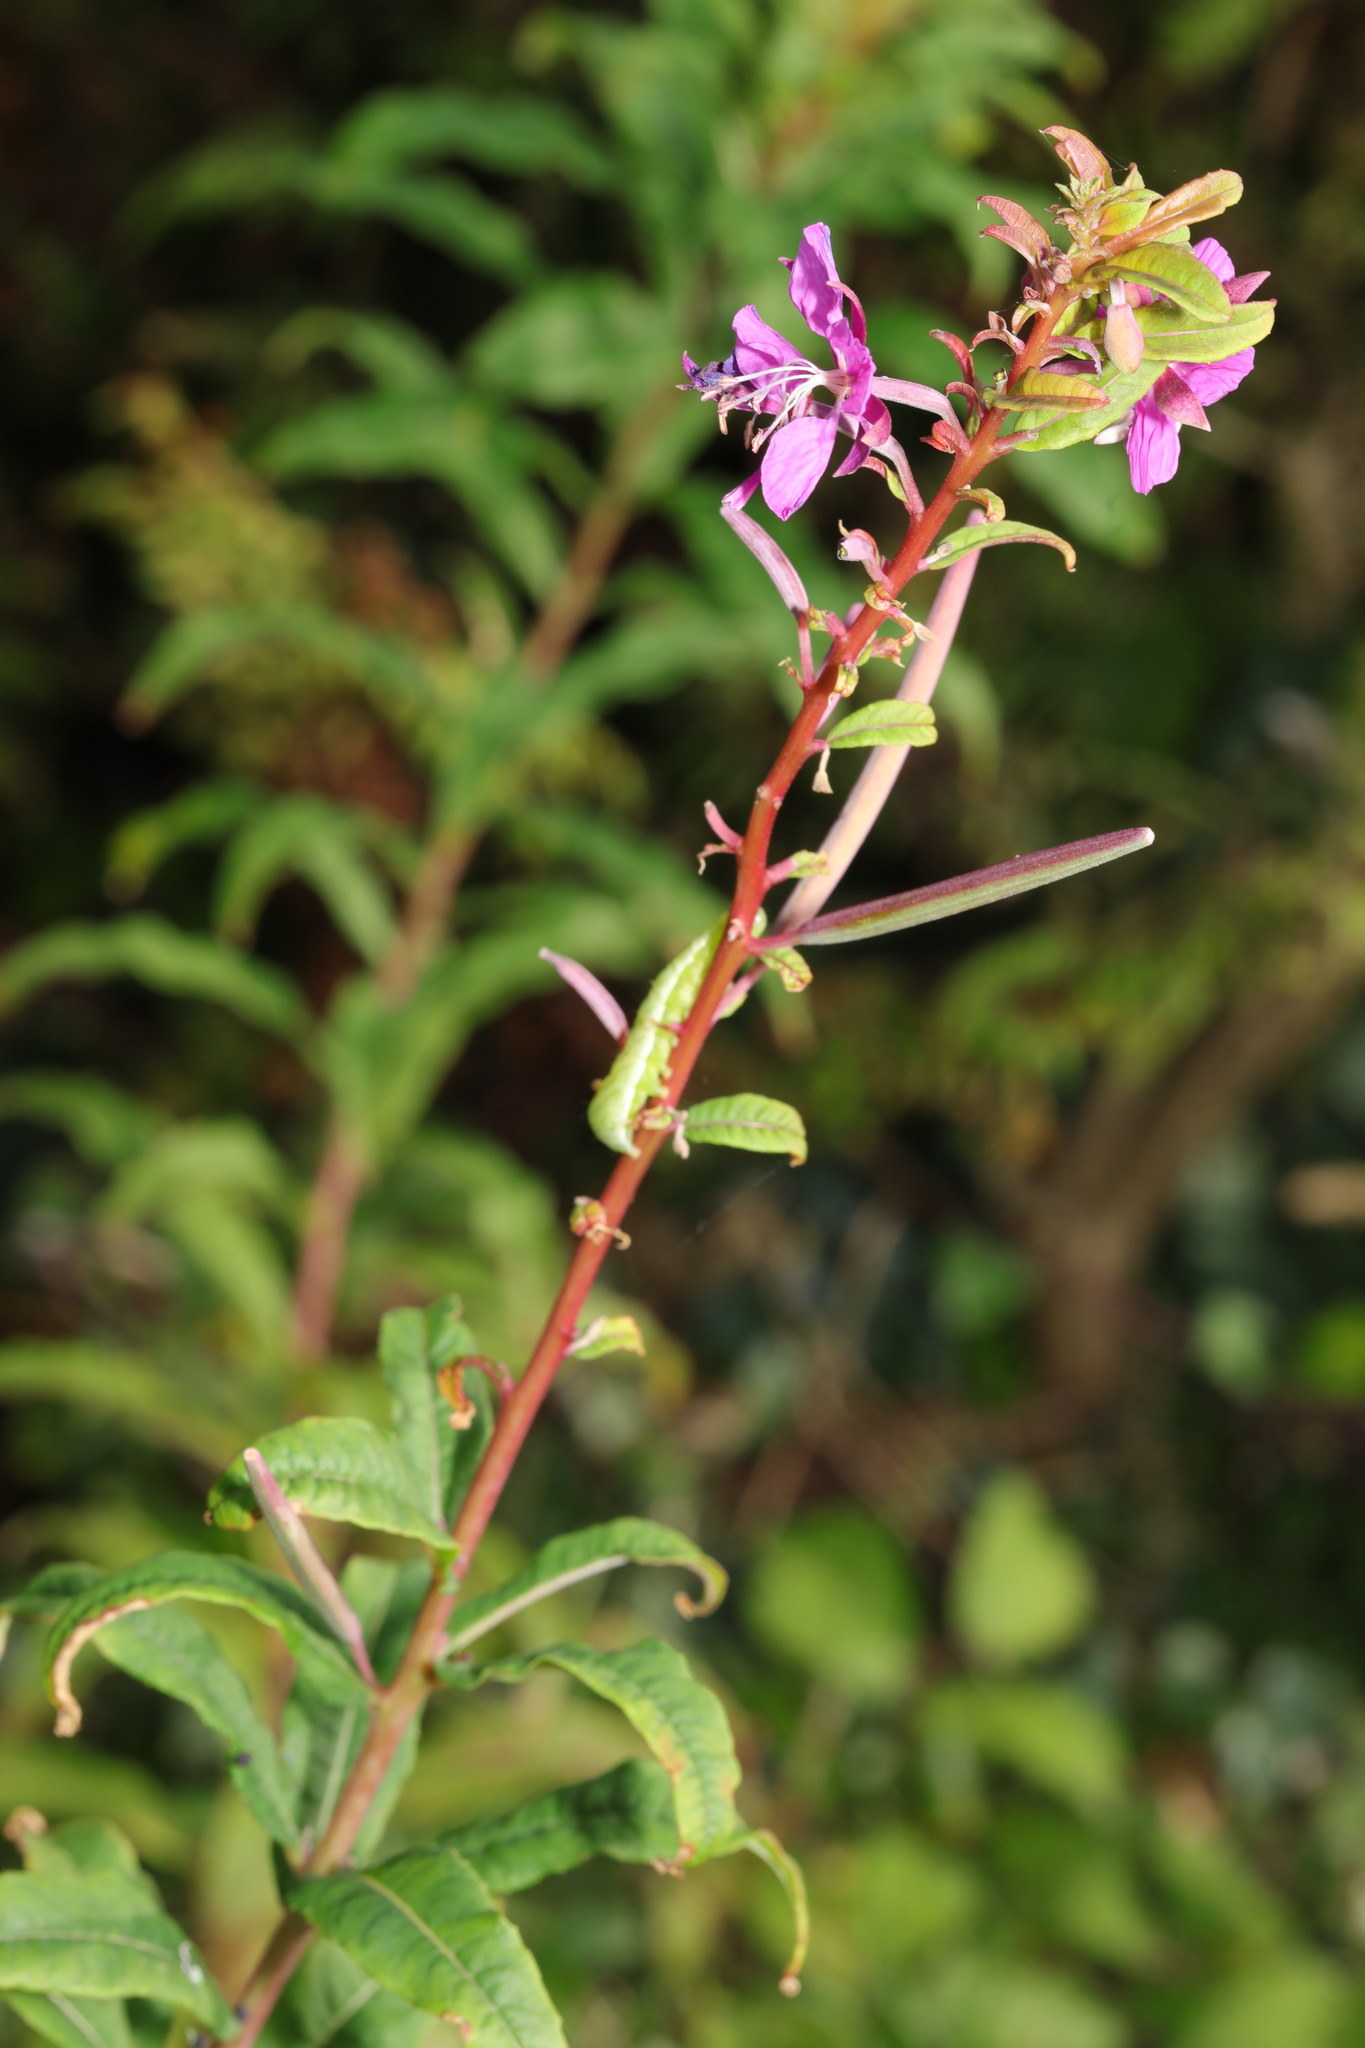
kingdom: Plantae
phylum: Tracheophyta
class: Magnoliopsida
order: Myrtales
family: Onagraceae
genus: Chamaenerion
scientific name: Chamaenerion angustifolium
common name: Fireweed
